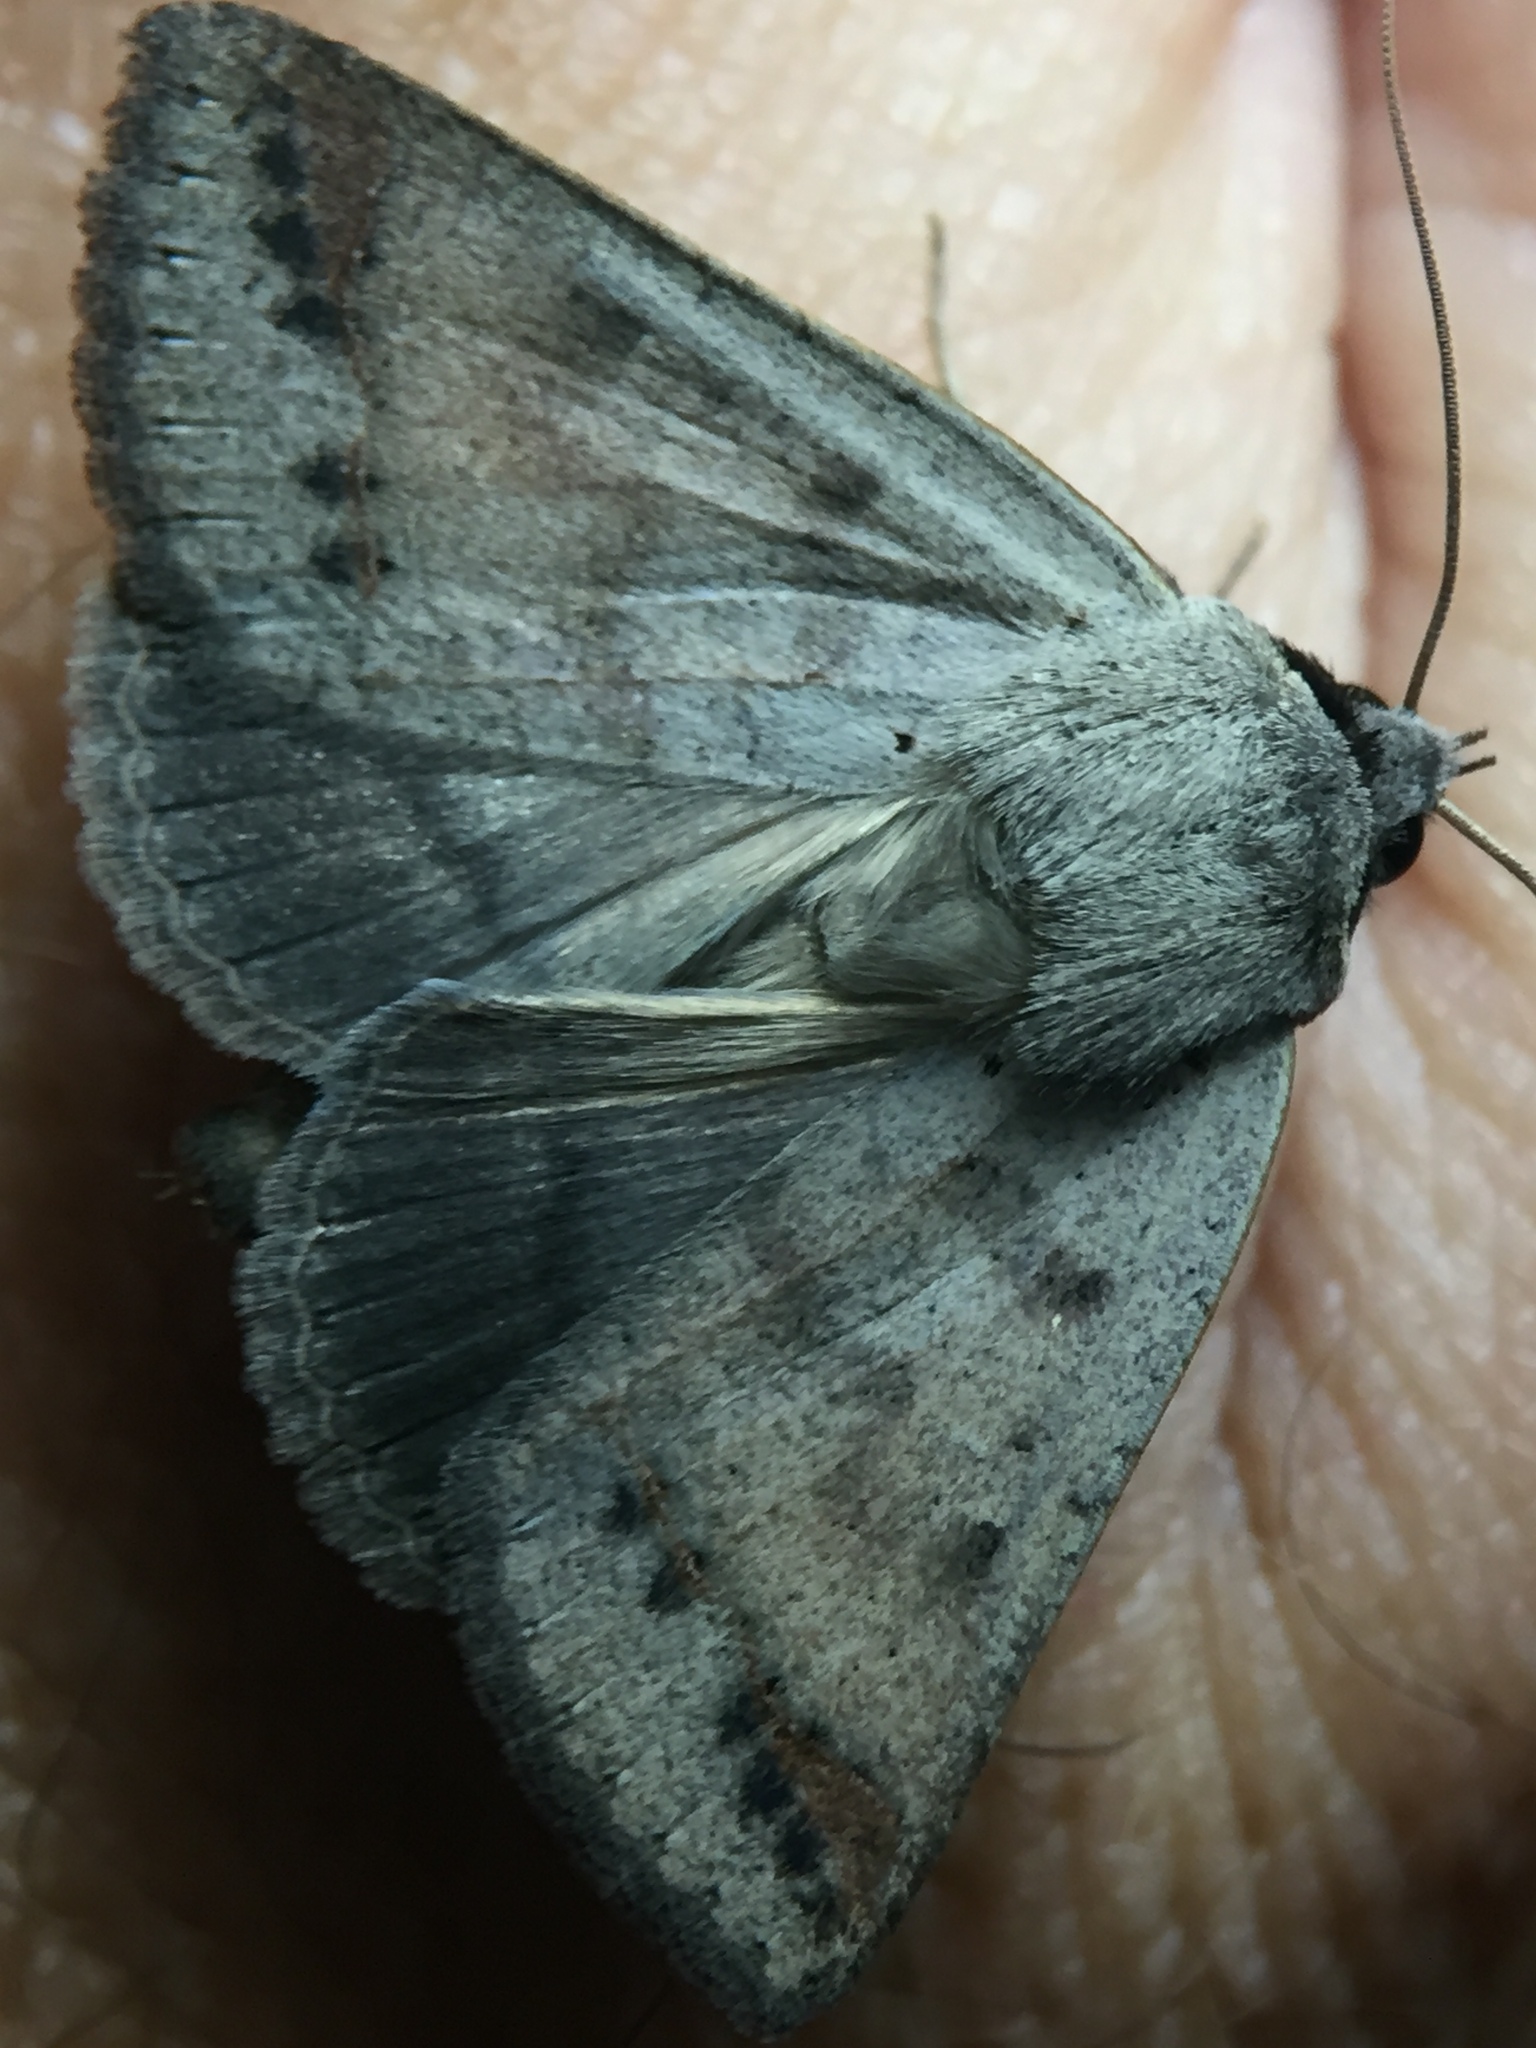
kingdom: Animalia
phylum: Arthropoda
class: Insecta
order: Lepidoptera
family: Erebidae
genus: Pantydia
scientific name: Pantydia sparsa
